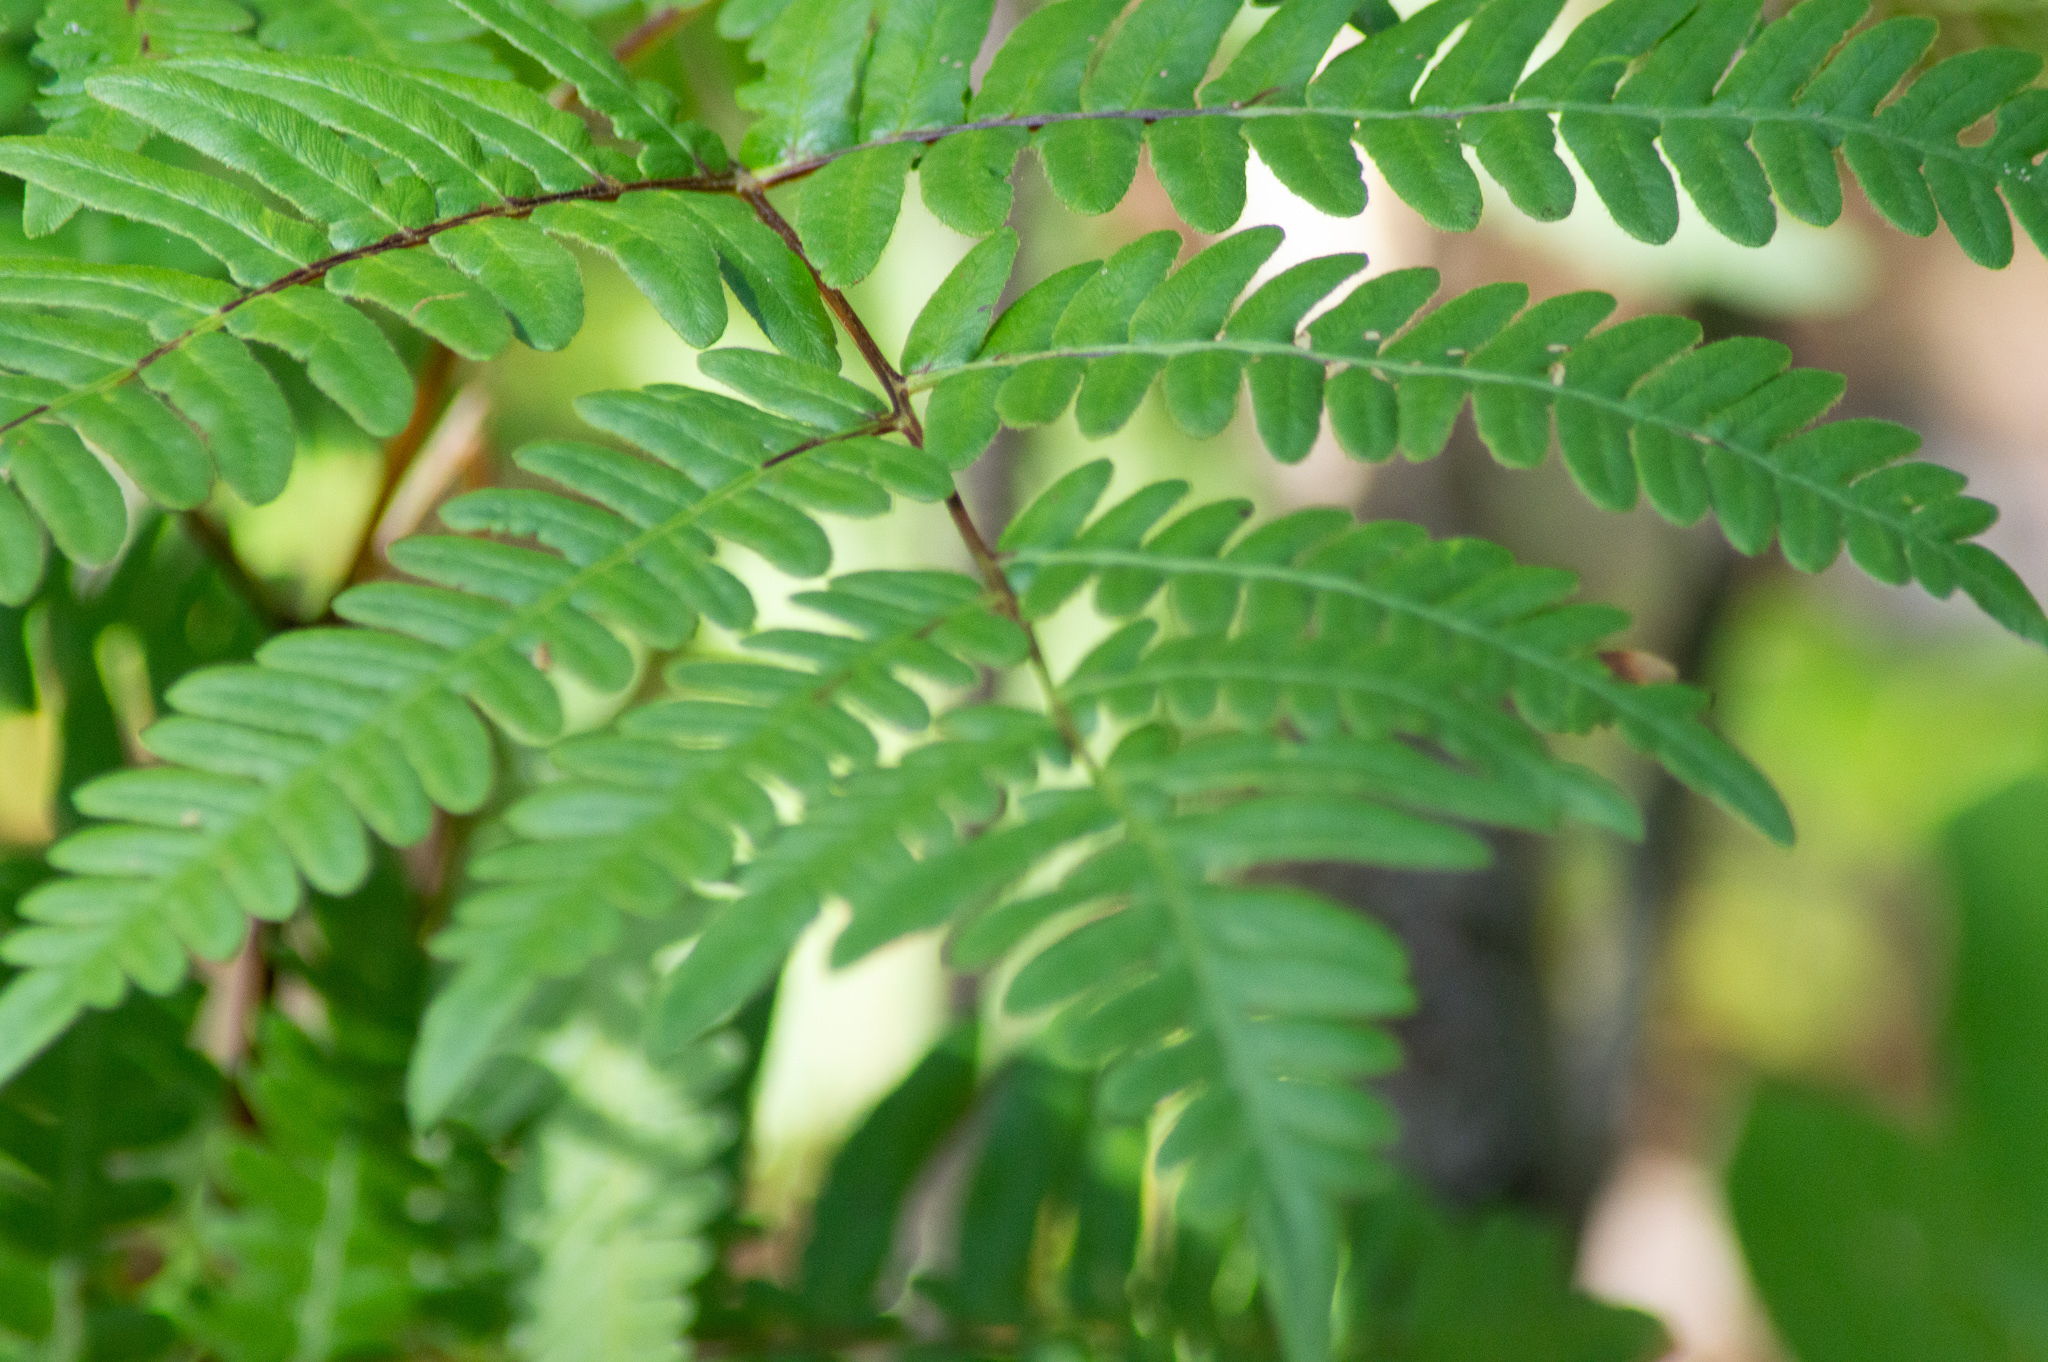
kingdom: Plantae
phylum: Tracheophyta
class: Polypodiopsida
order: Polypodiales
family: Dennstaedtiaceae
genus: Pteridium
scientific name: Pteridium aquilinum
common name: Bracken
